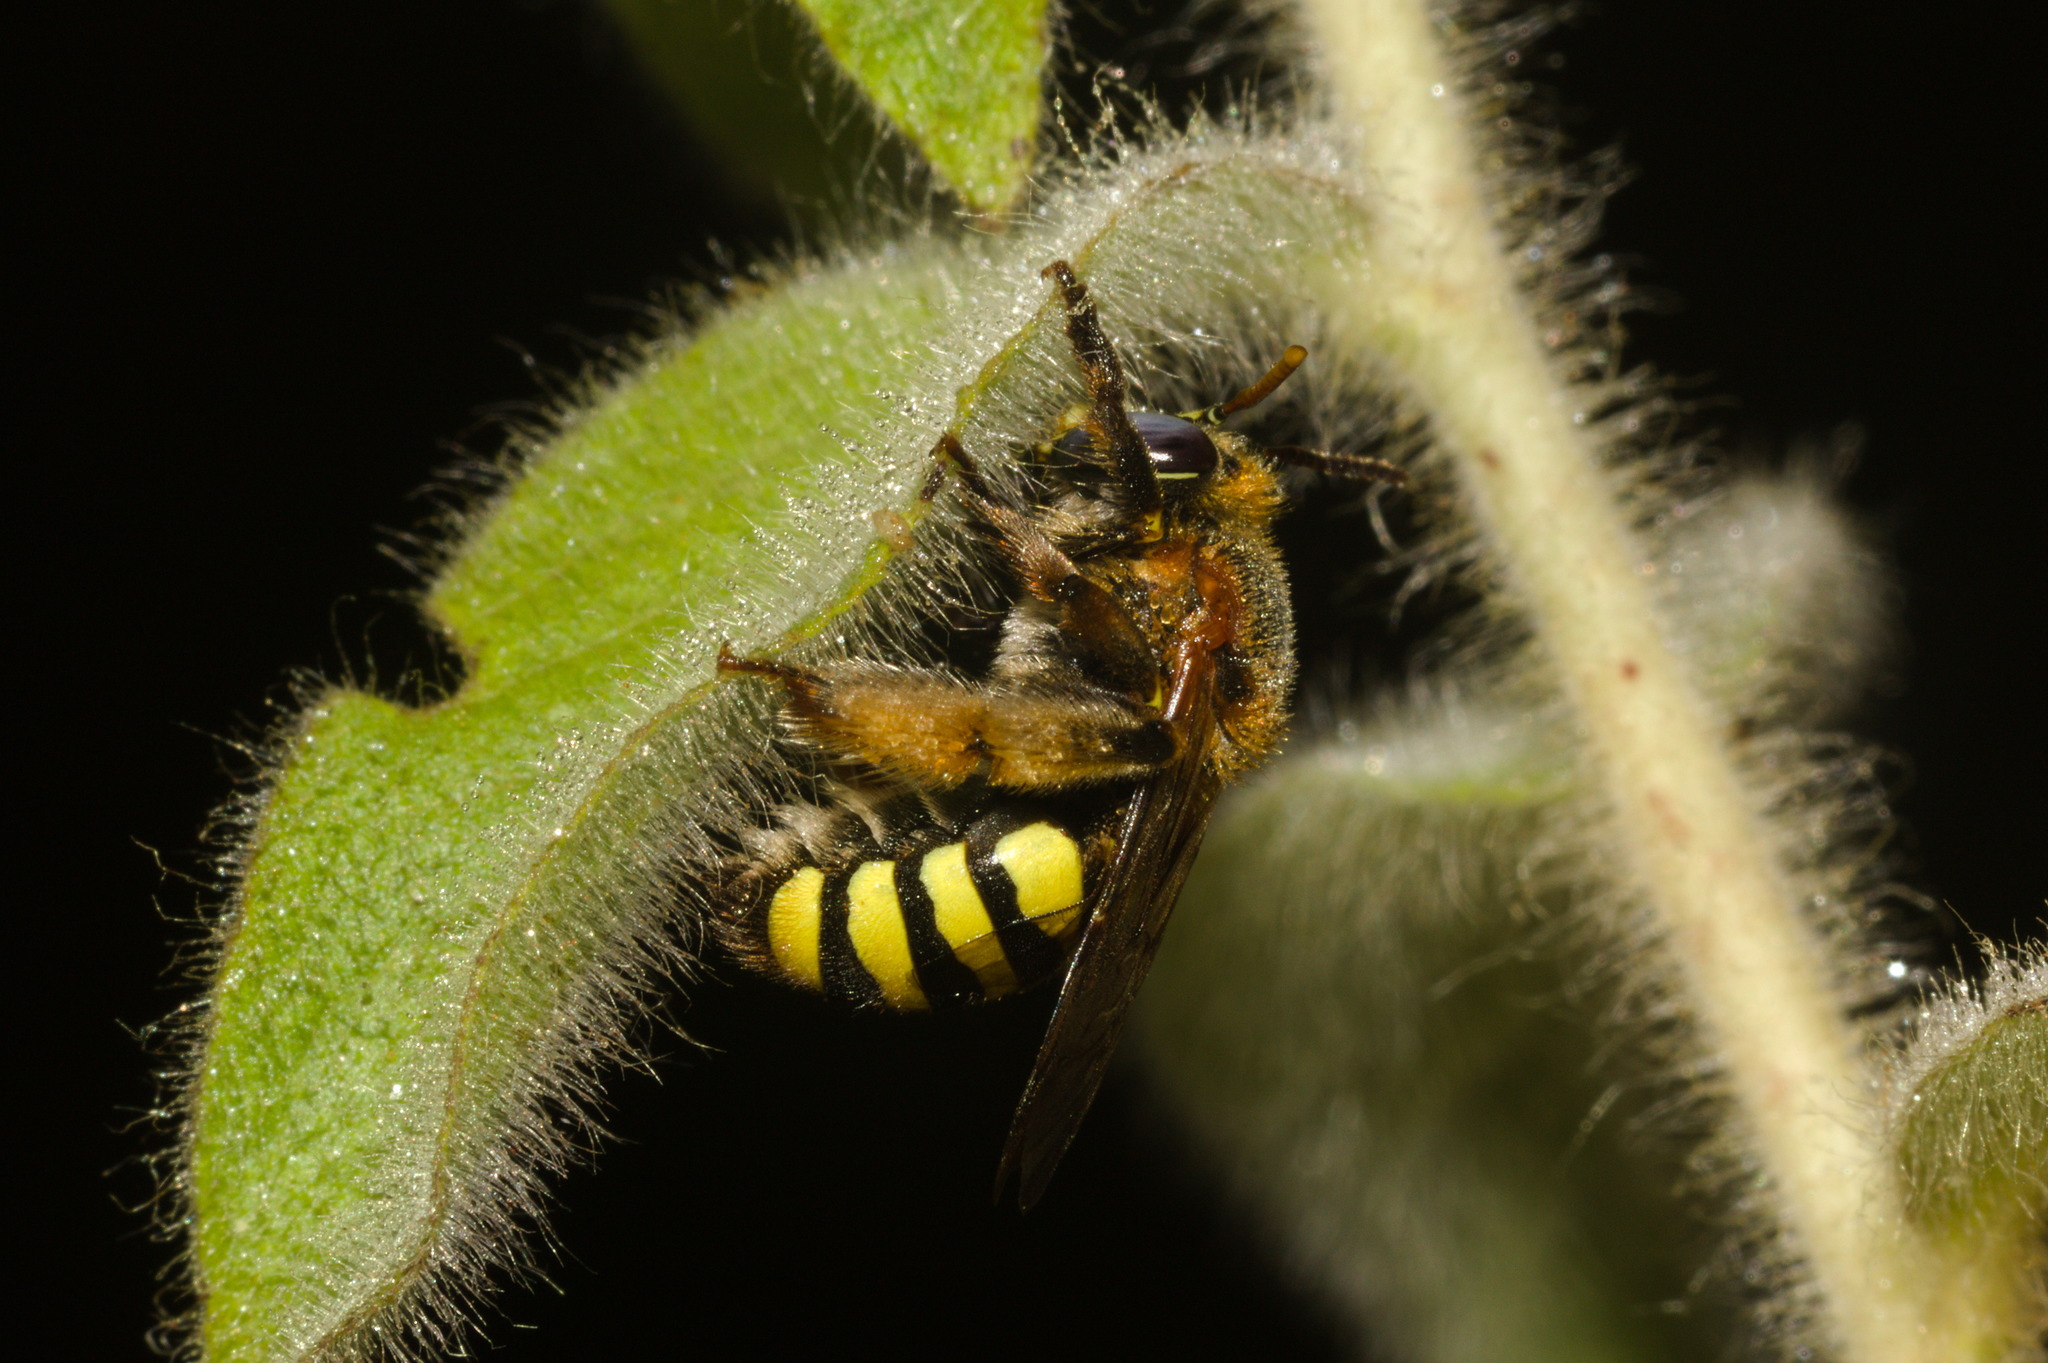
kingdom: Animalia
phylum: Arthropoda
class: Insecta
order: Hymenoptera
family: Apidae
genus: Caenonomada
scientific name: Caenonomada bruneri
